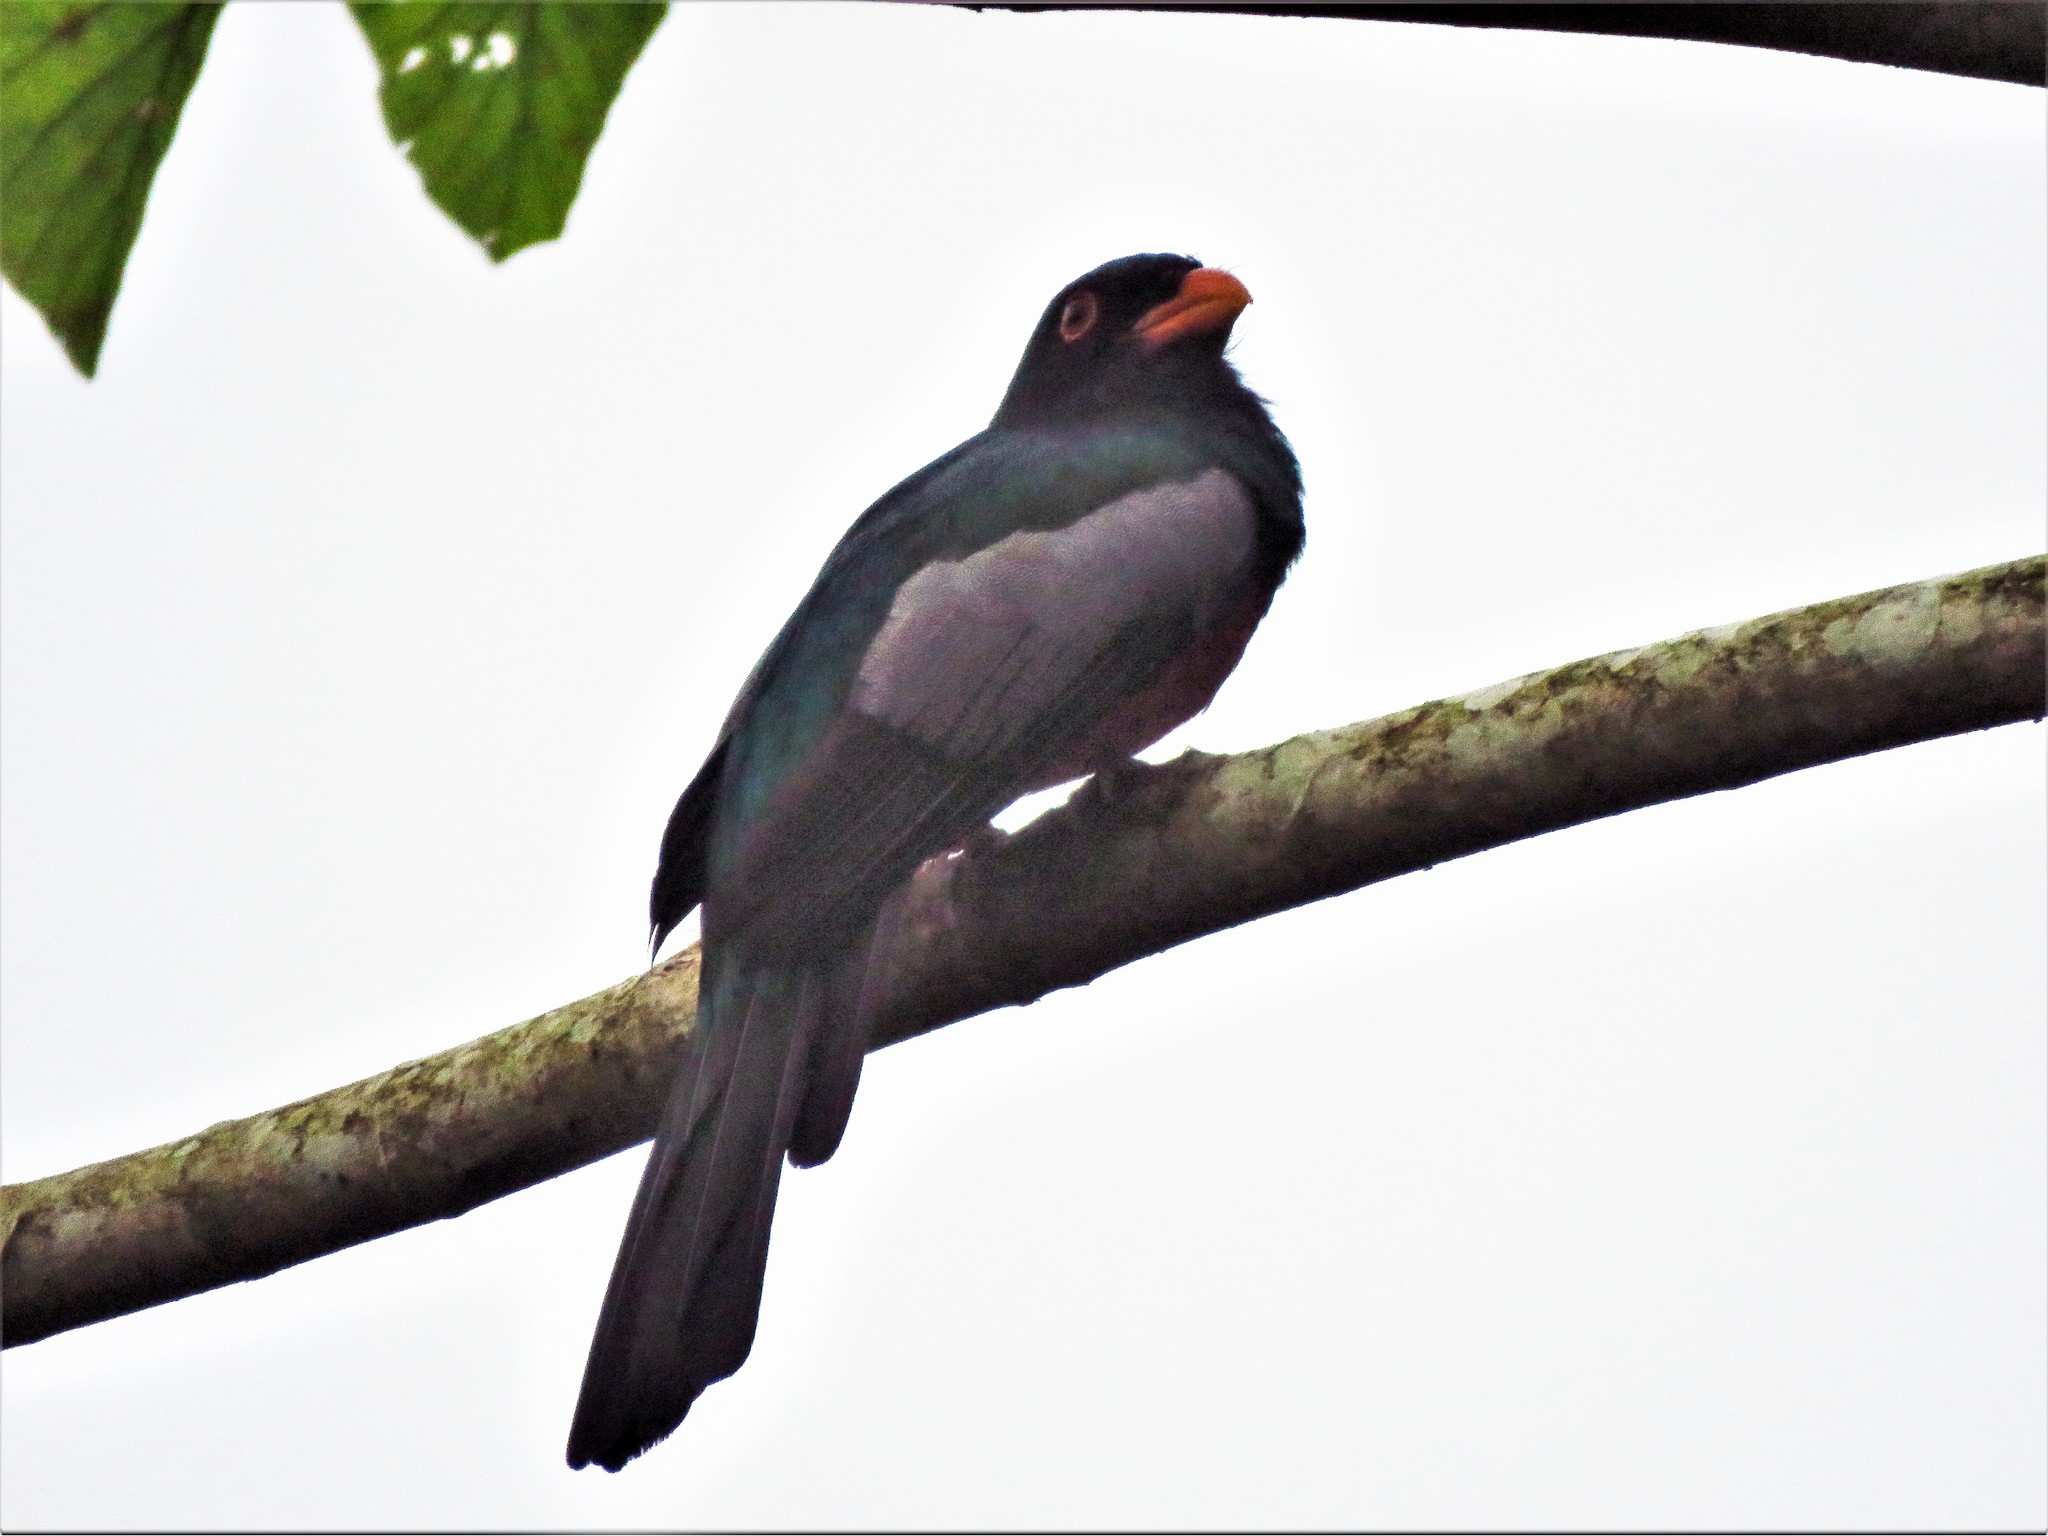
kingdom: Animalia
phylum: Chordata
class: Aves
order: Trogoniformes
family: Trogonidae
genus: Trogon
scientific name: Trogon massena
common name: Slaty-tailed trogon
